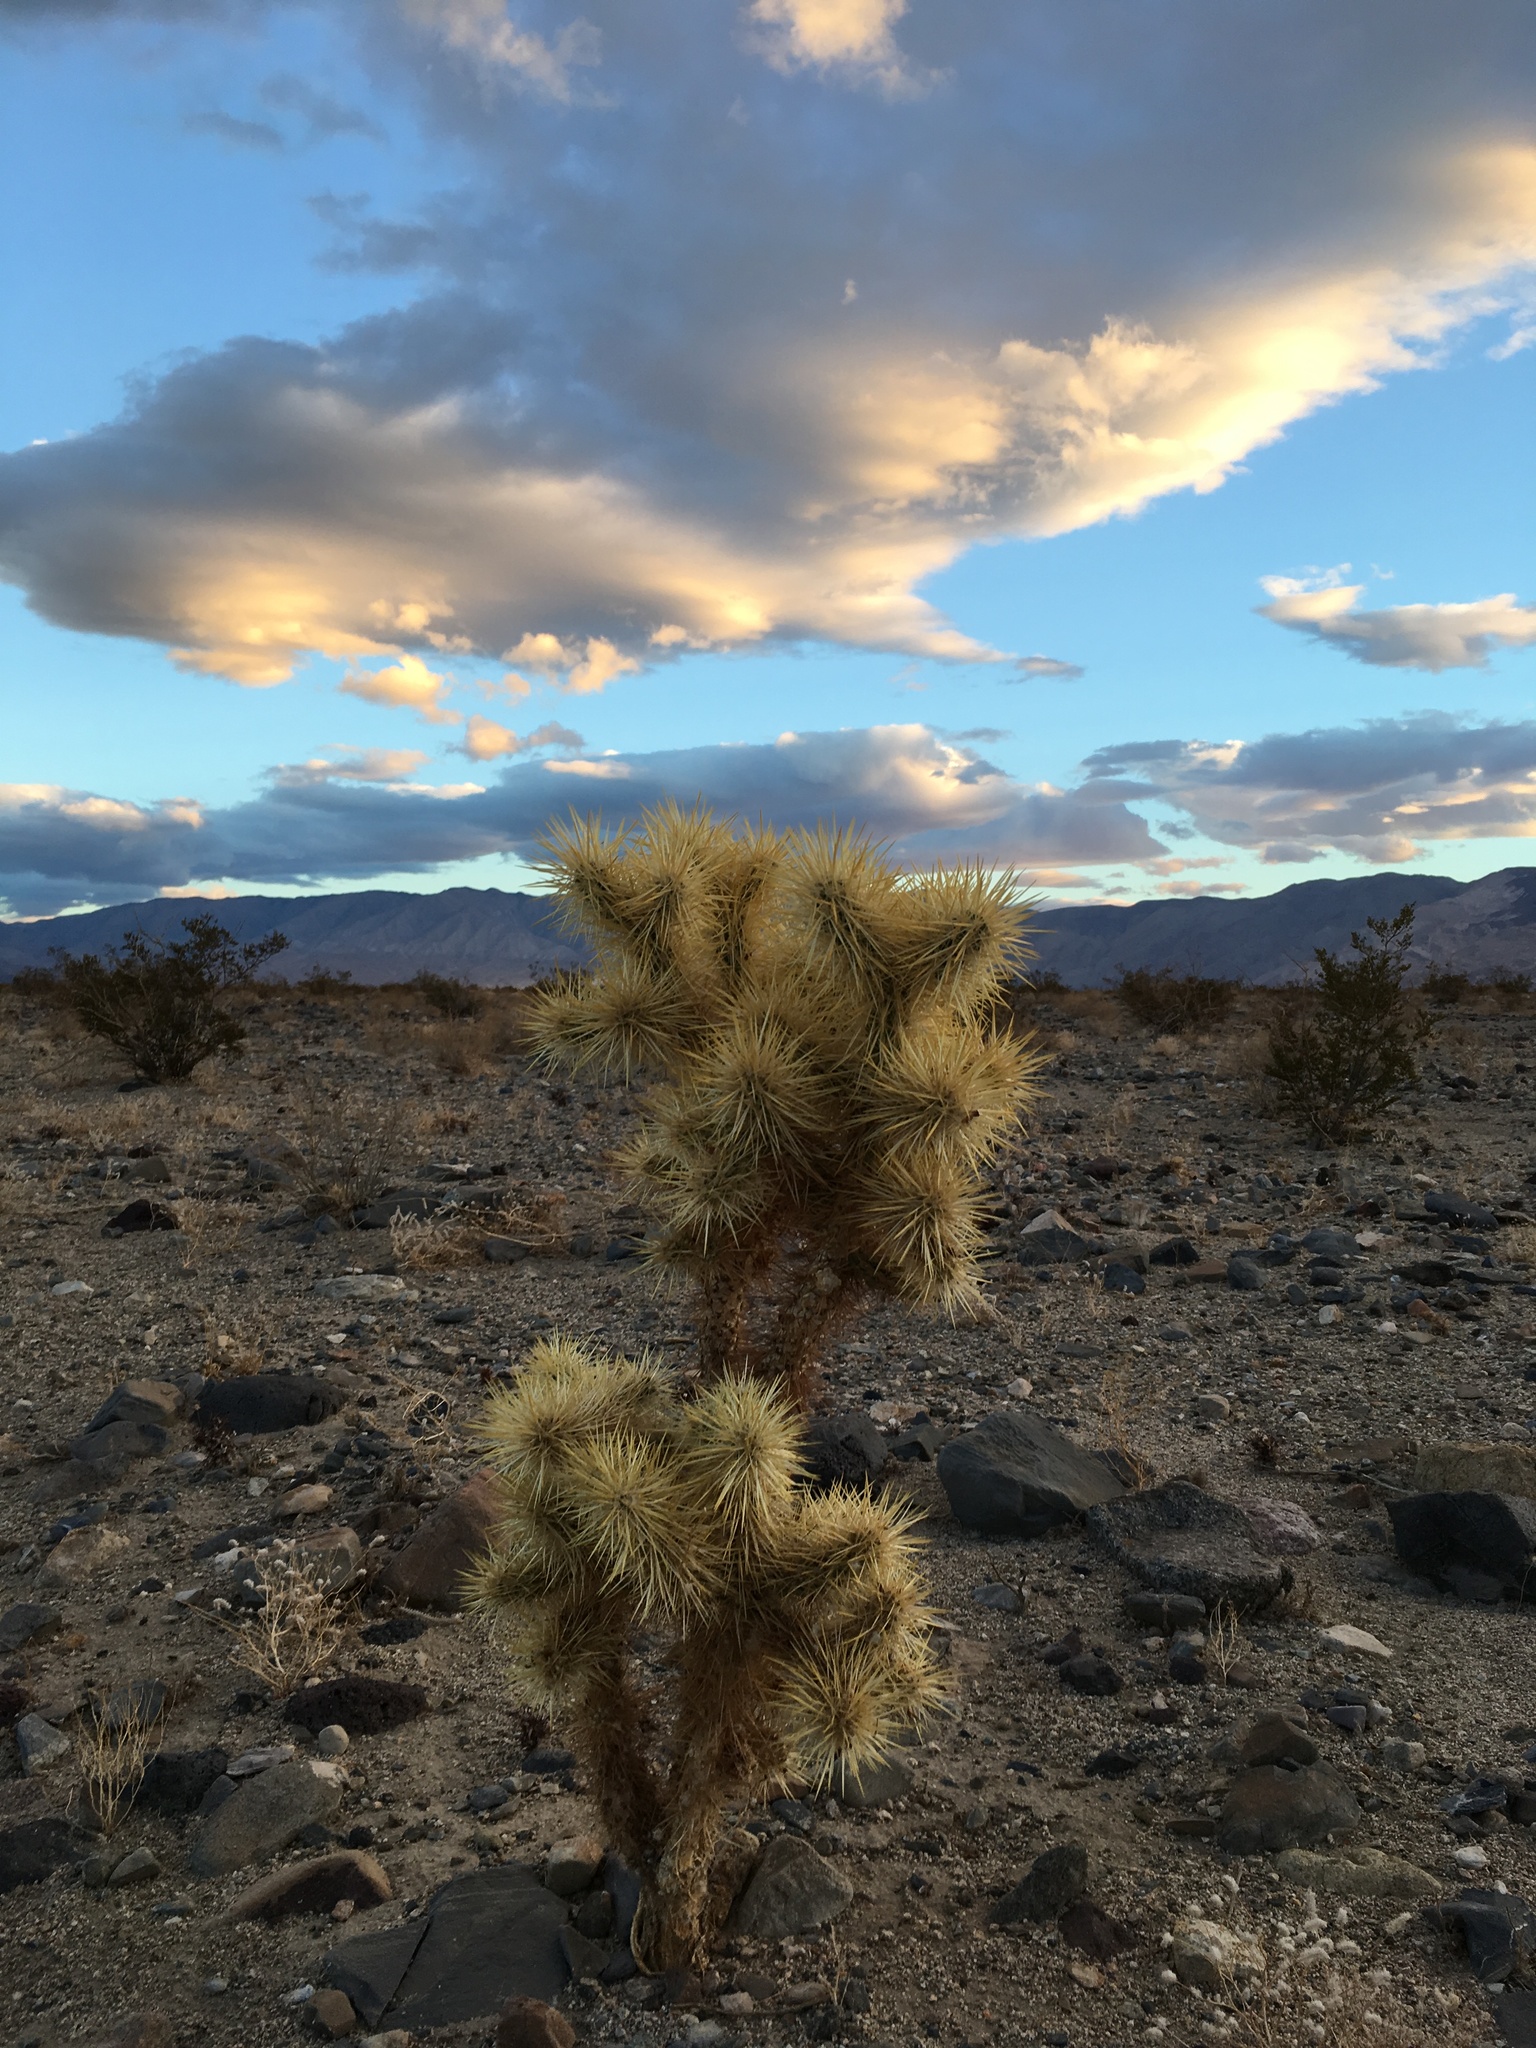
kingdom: Plantae
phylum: Tracheophyta
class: Magnoliopsida
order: Caryophyllales
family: Cactaceae
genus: Cylindropuntia
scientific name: Cylindropuntia echinocarpa
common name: Ground cholla
